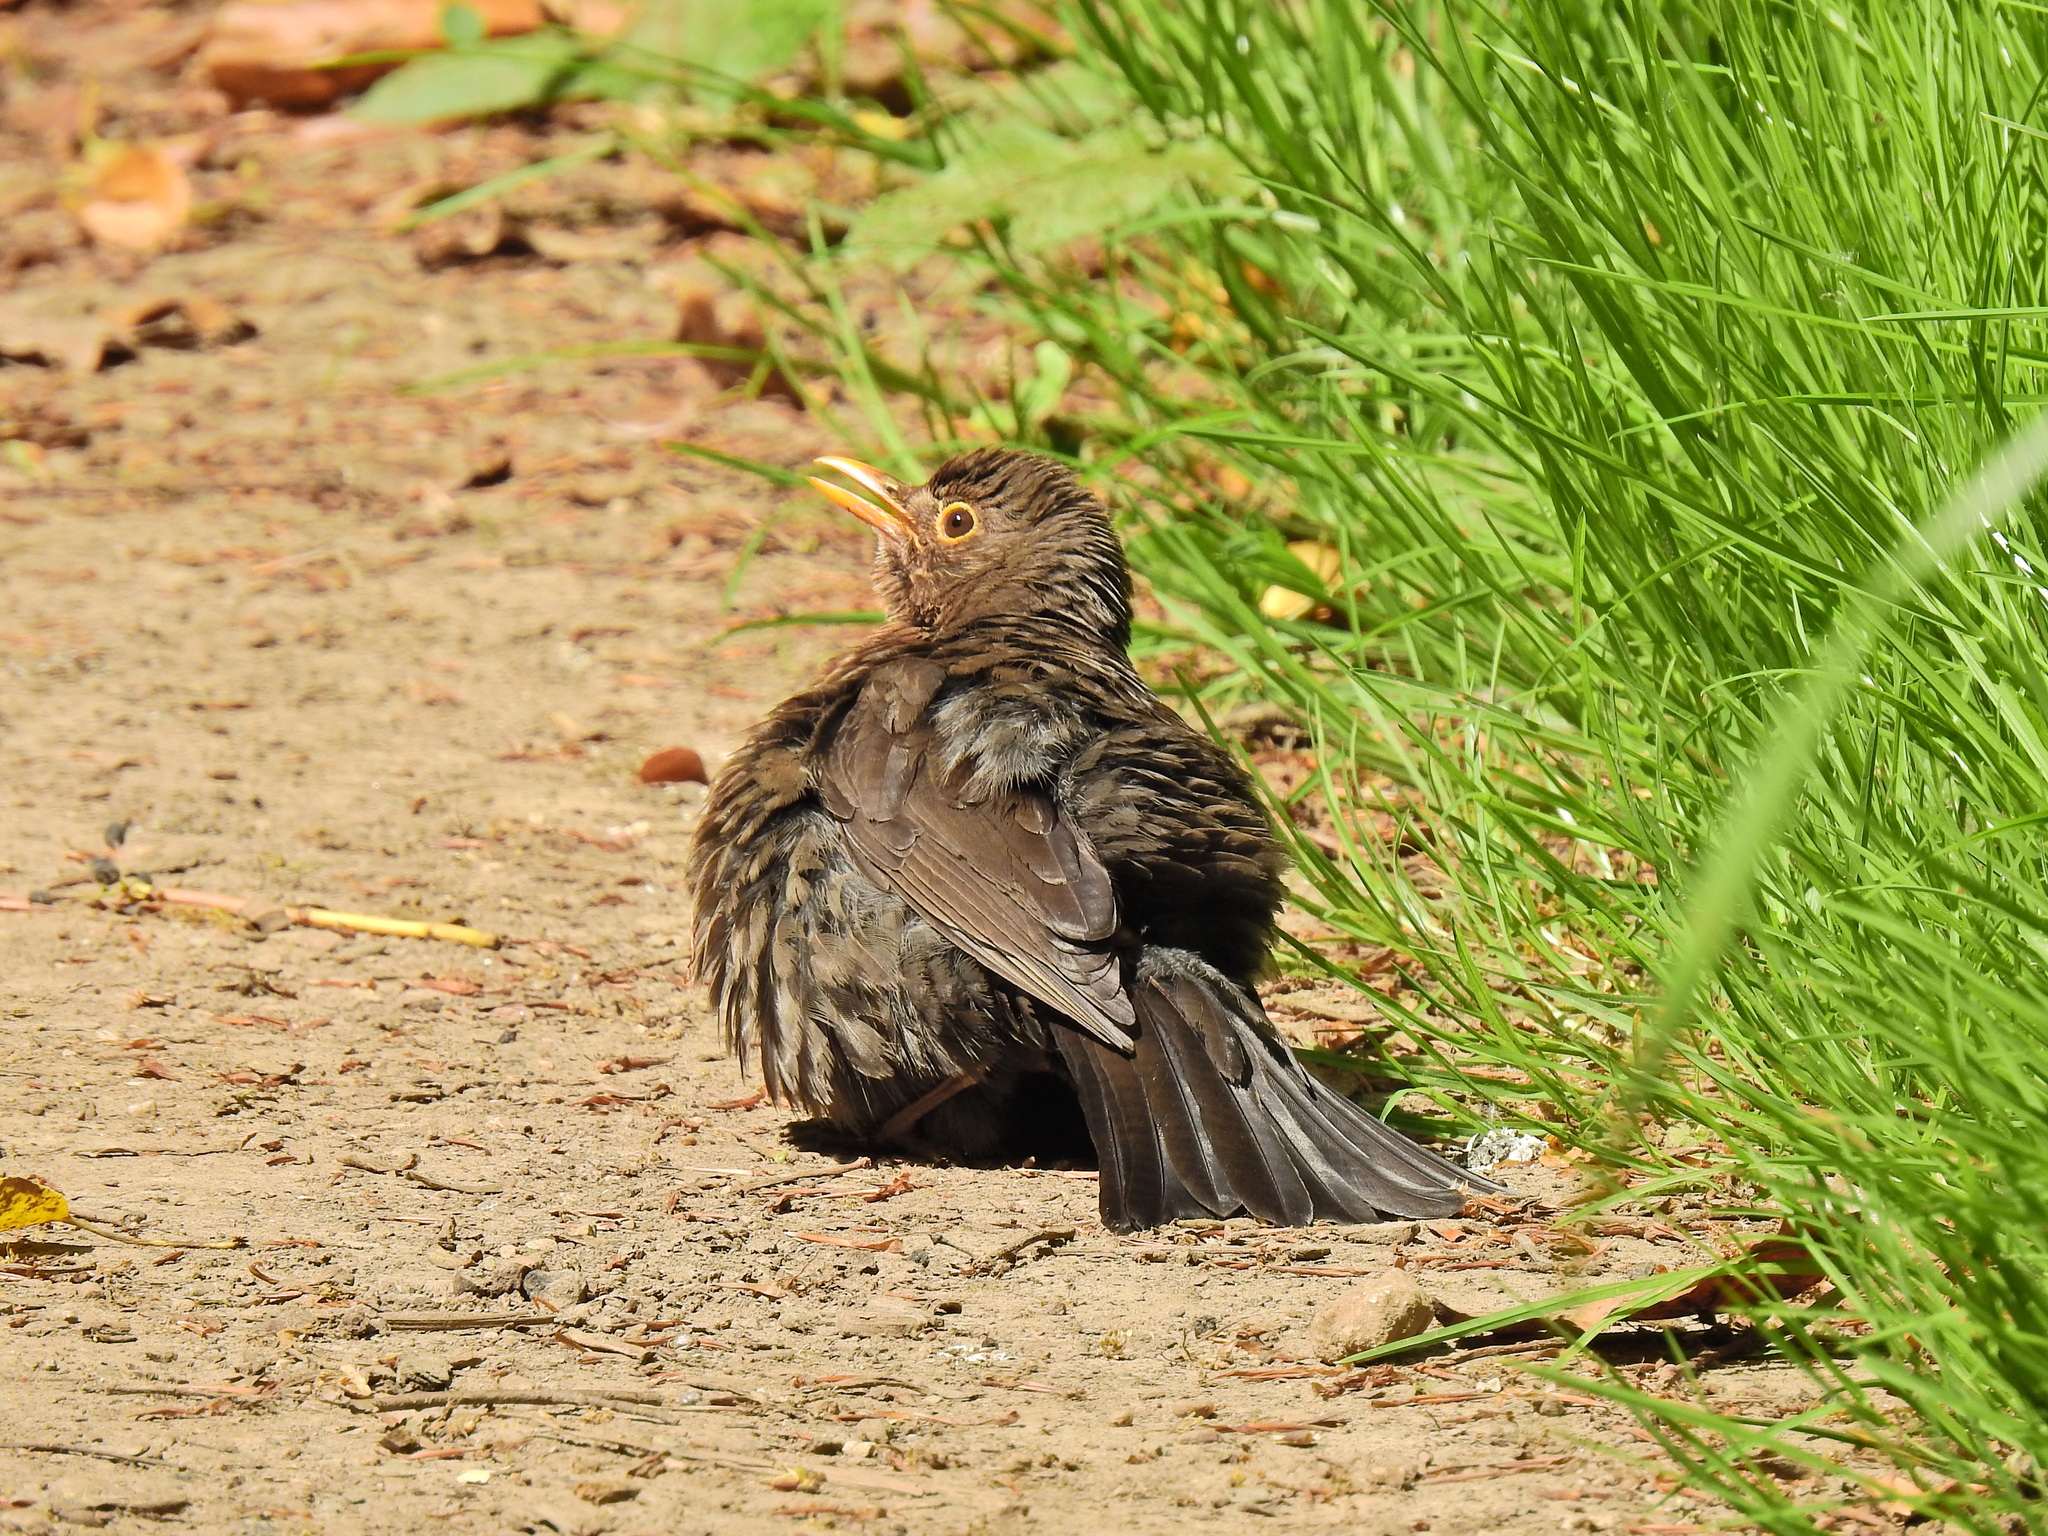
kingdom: Animalia
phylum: Chordata
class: Aves
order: Passeriformes
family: Turdidae
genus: Turdus
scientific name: Turdus merula
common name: Common blackbird
